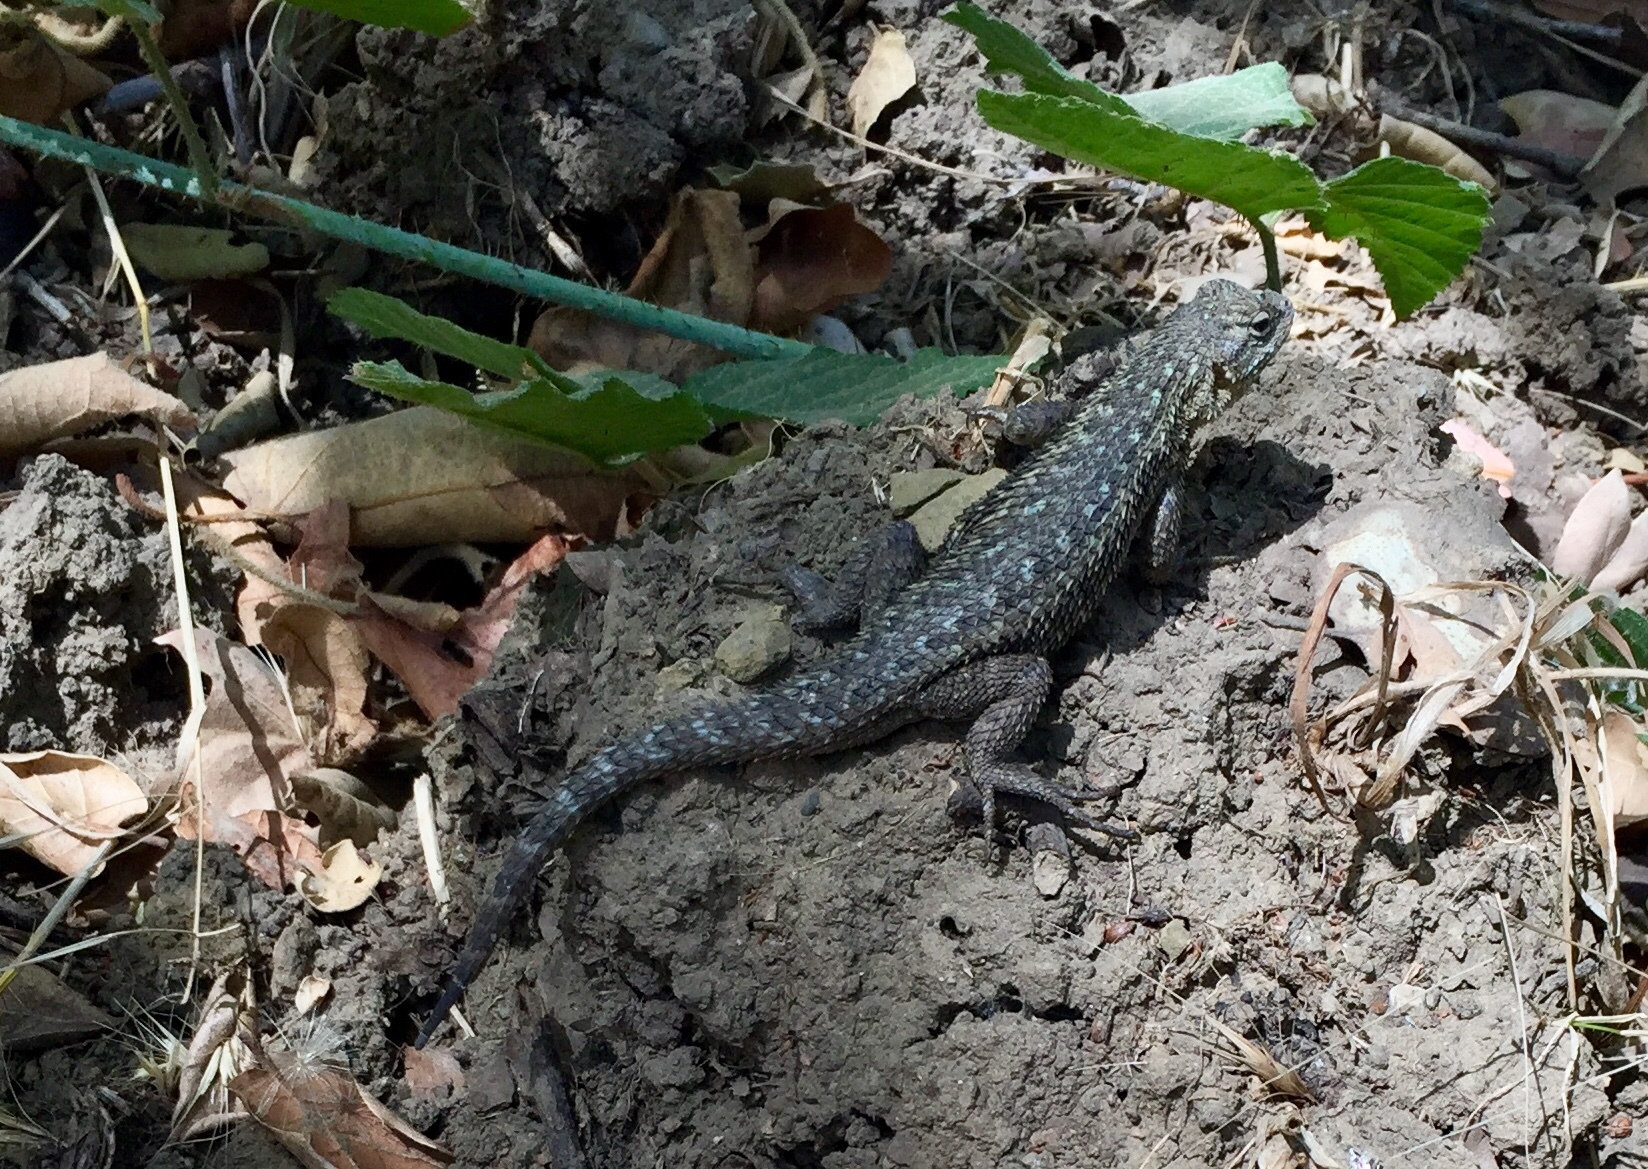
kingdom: Animalia
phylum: Chordata
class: Squamata
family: Phrynosomatidae
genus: Sceloporus
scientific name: Sceloporus occidentalis
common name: Western fence lizard
